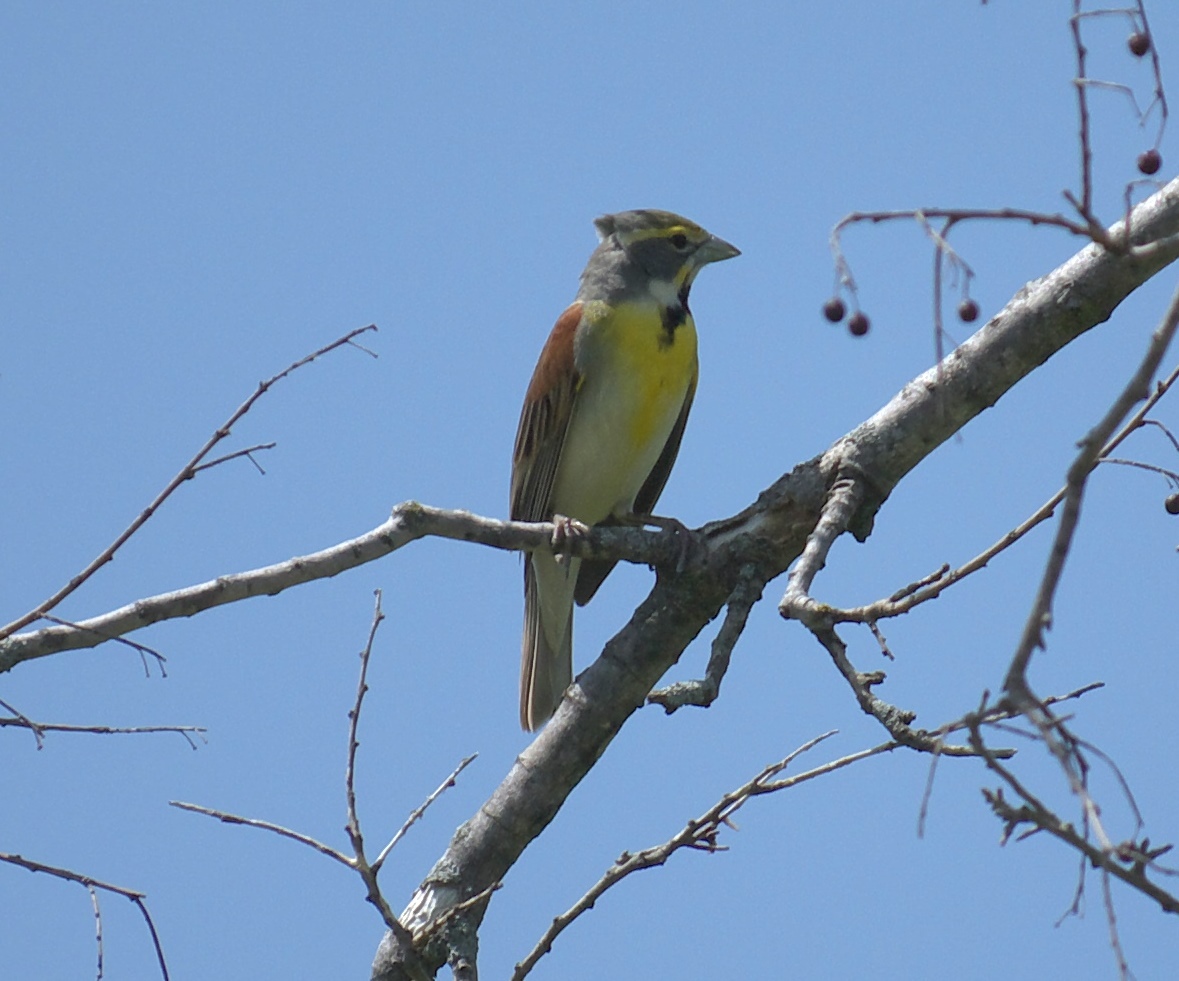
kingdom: Animalia
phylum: Chordata
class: Aves
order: Passeriformes
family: Cardinalidae
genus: Spiza
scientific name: Spiza americana
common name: Dickcissel
